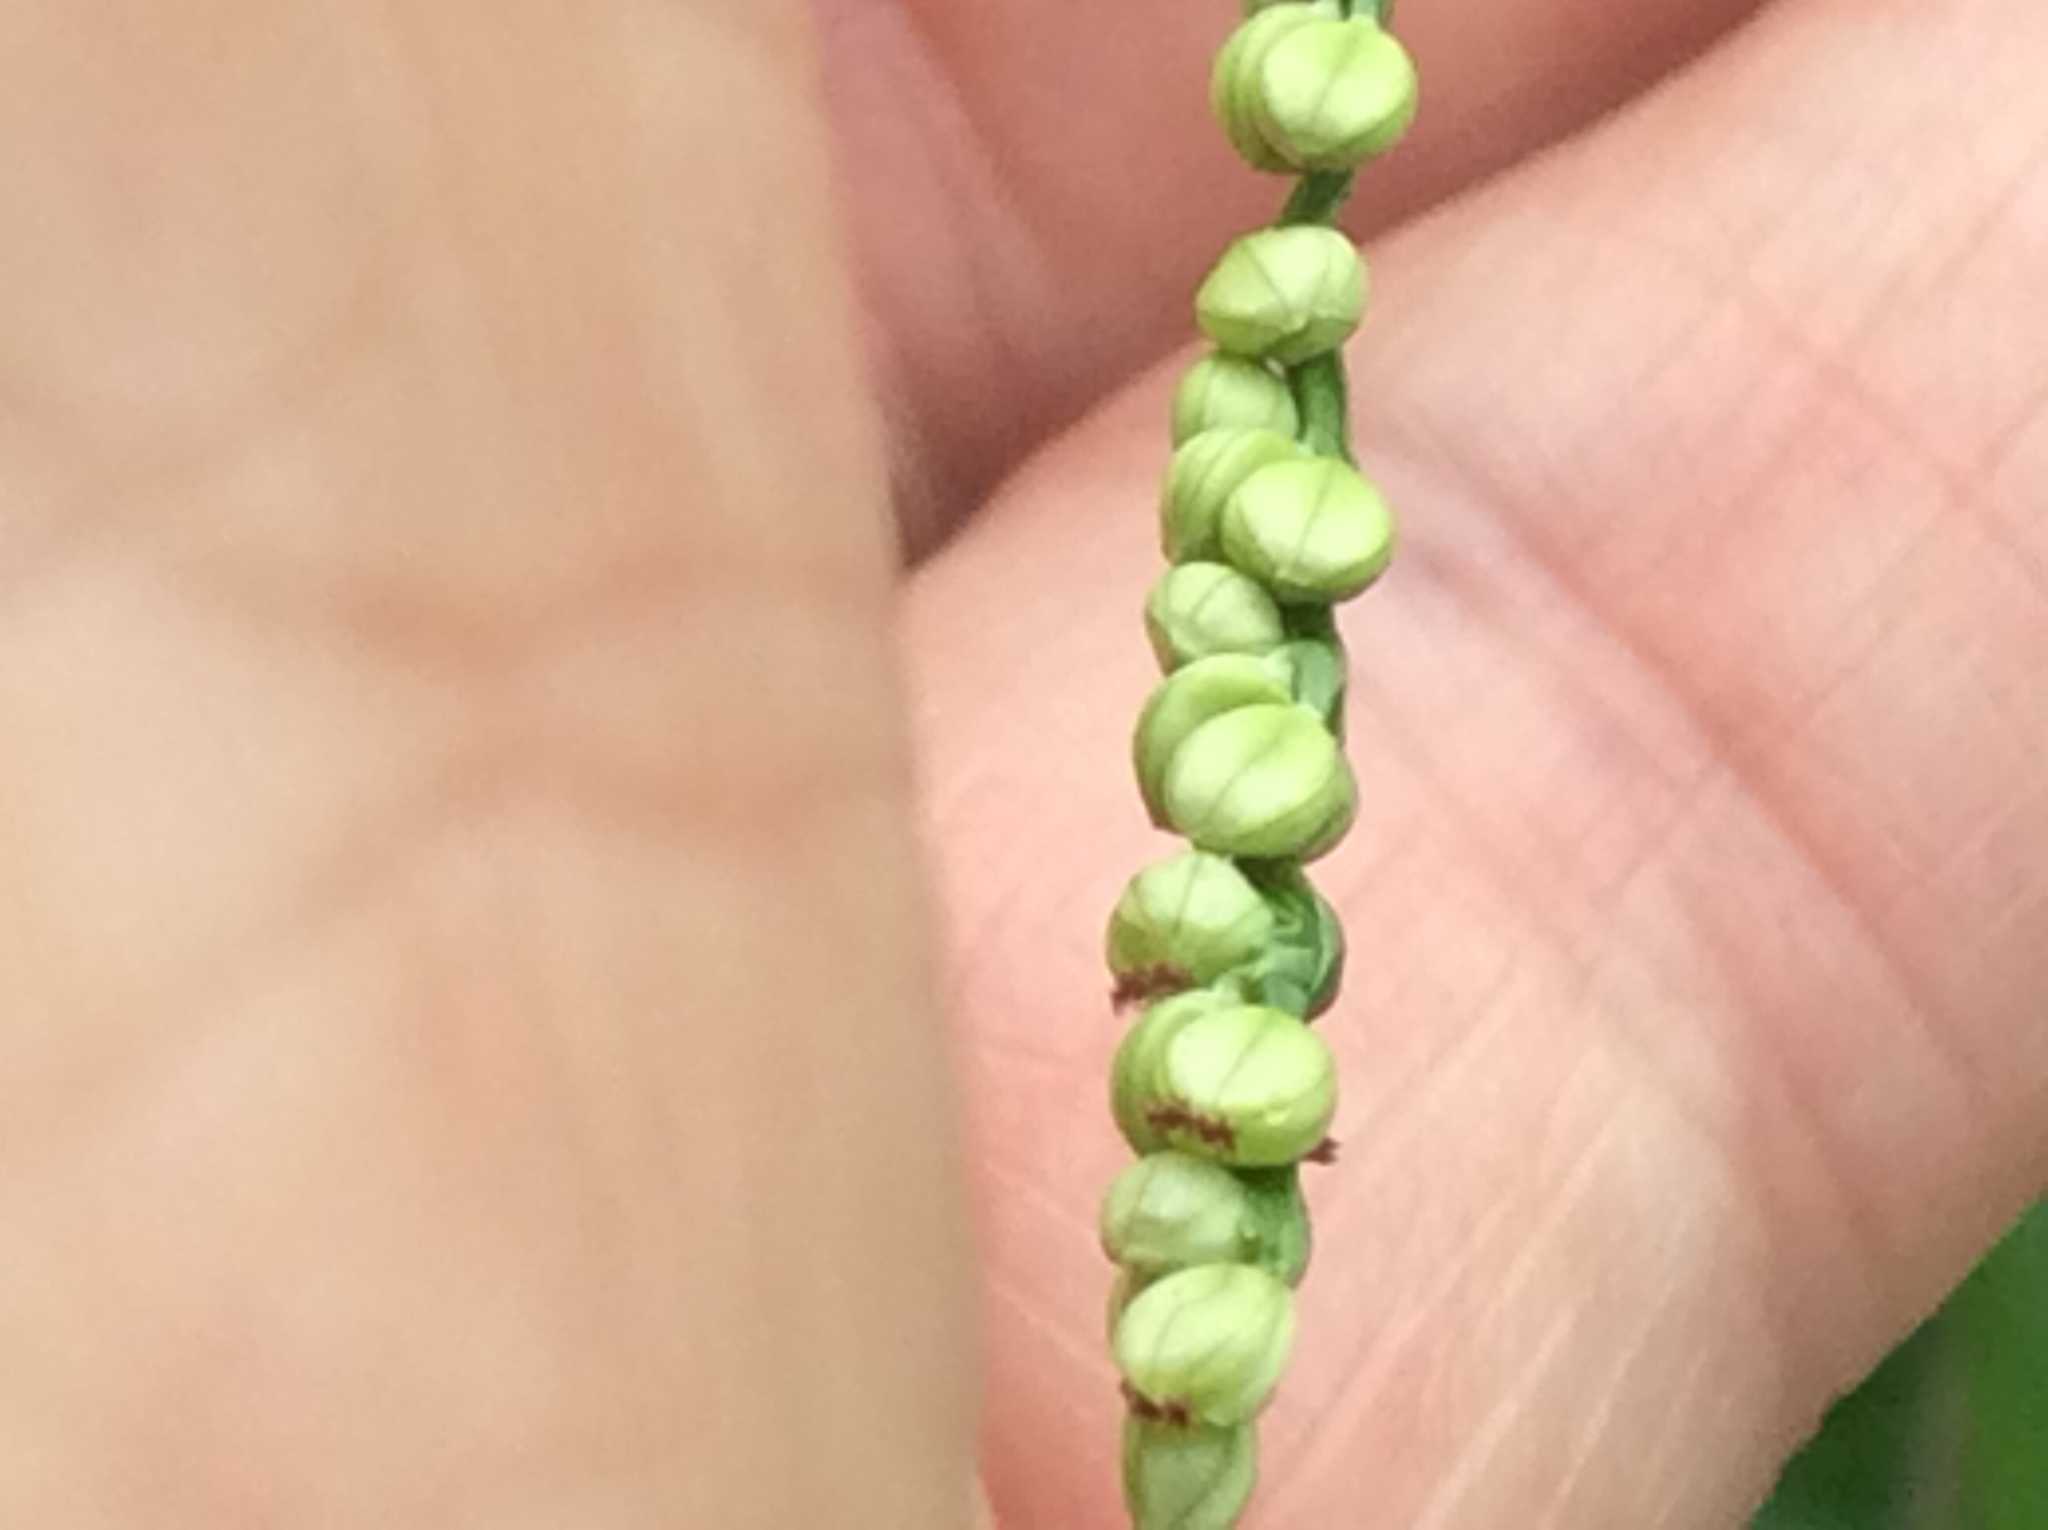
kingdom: Plantae
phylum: Tracheophyta
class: Liliopsida
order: Poales
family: Poaceae
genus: Paspalum
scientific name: Paspalum setaceum
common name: Slender paspalum
